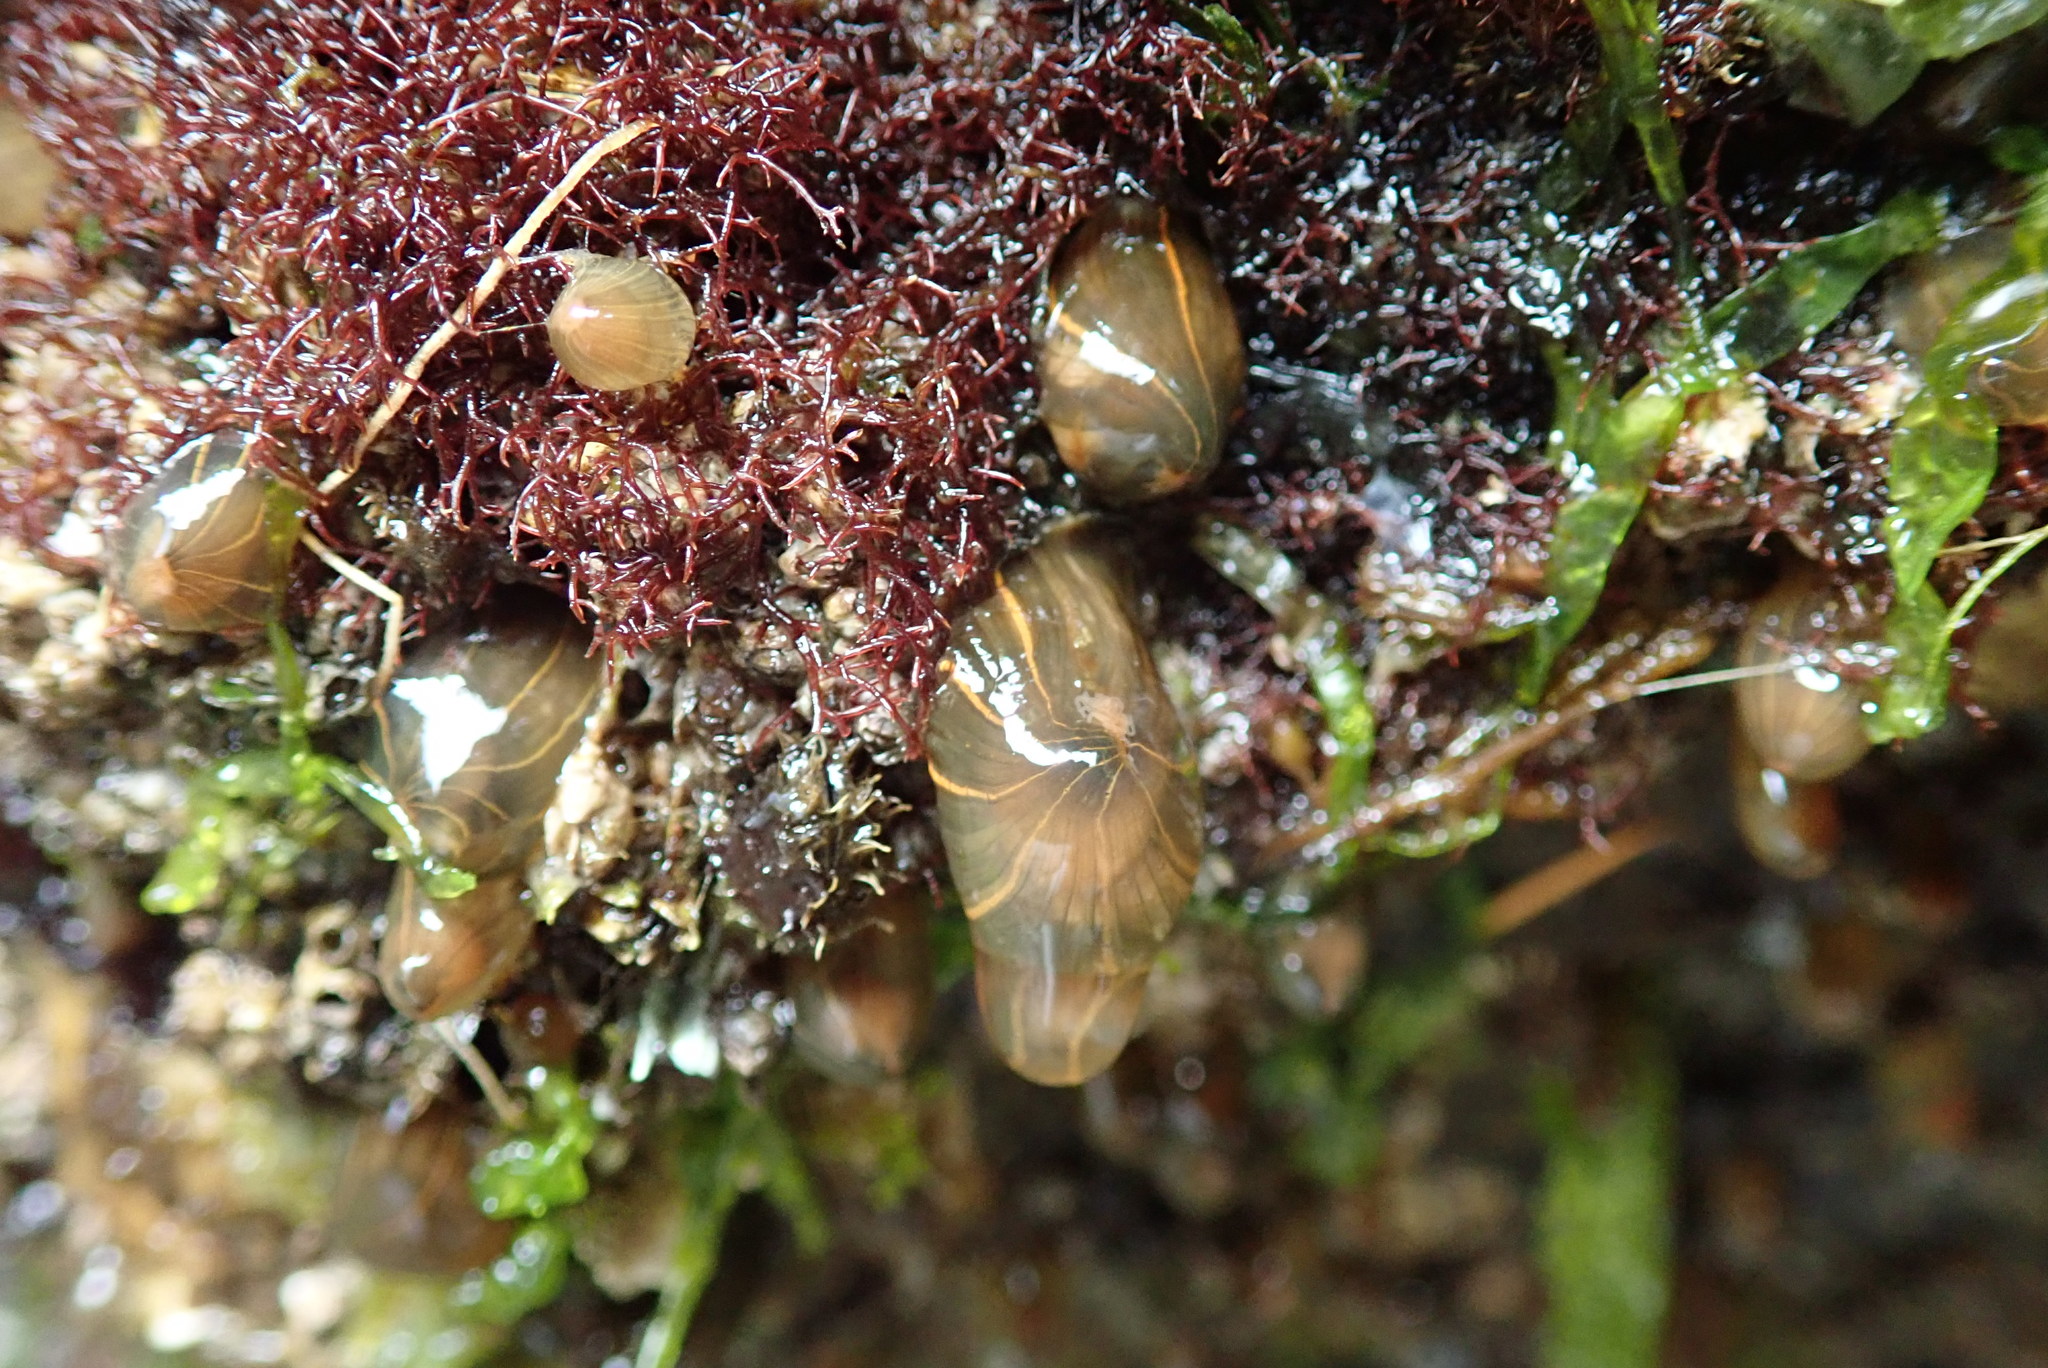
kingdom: Animalia
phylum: Cnidaria
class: Anthozoa
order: Actiniaria
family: Diadumenidae
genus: Diadumene
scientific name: Diadumene lineata
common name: Orange-striped anemone
